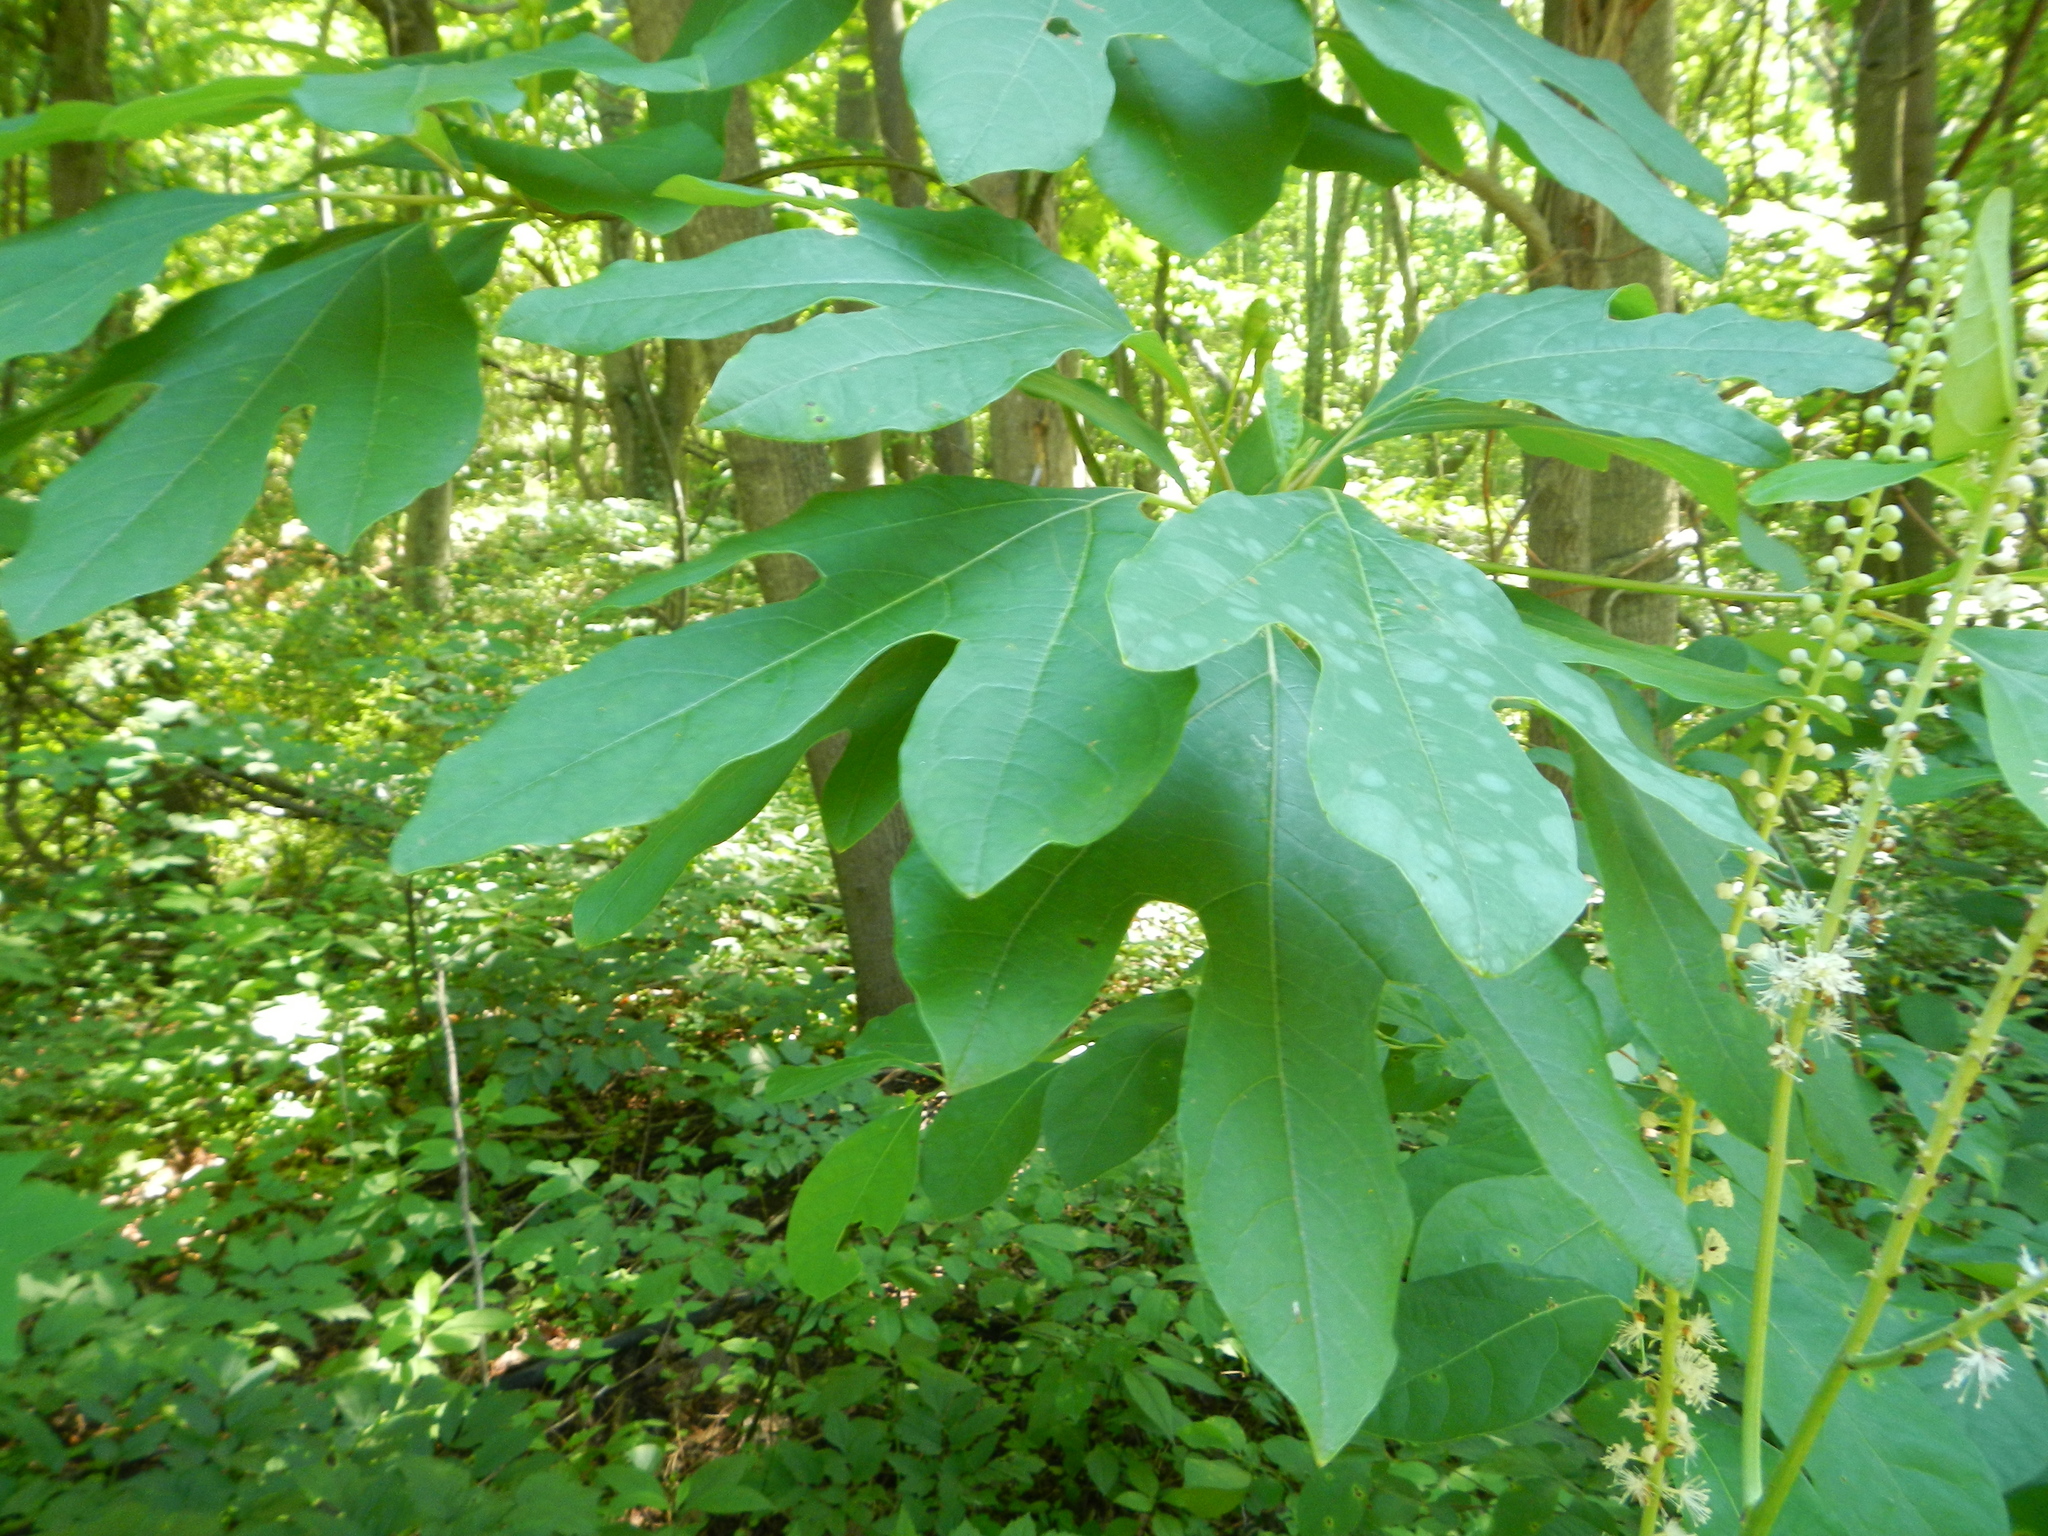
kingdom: Plantae
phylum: Tracheophyta
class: Magnoliopsida
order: Laurales
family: Lauraceae
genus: Sassafras
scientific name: Sassafras albidum
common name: Sassafras
